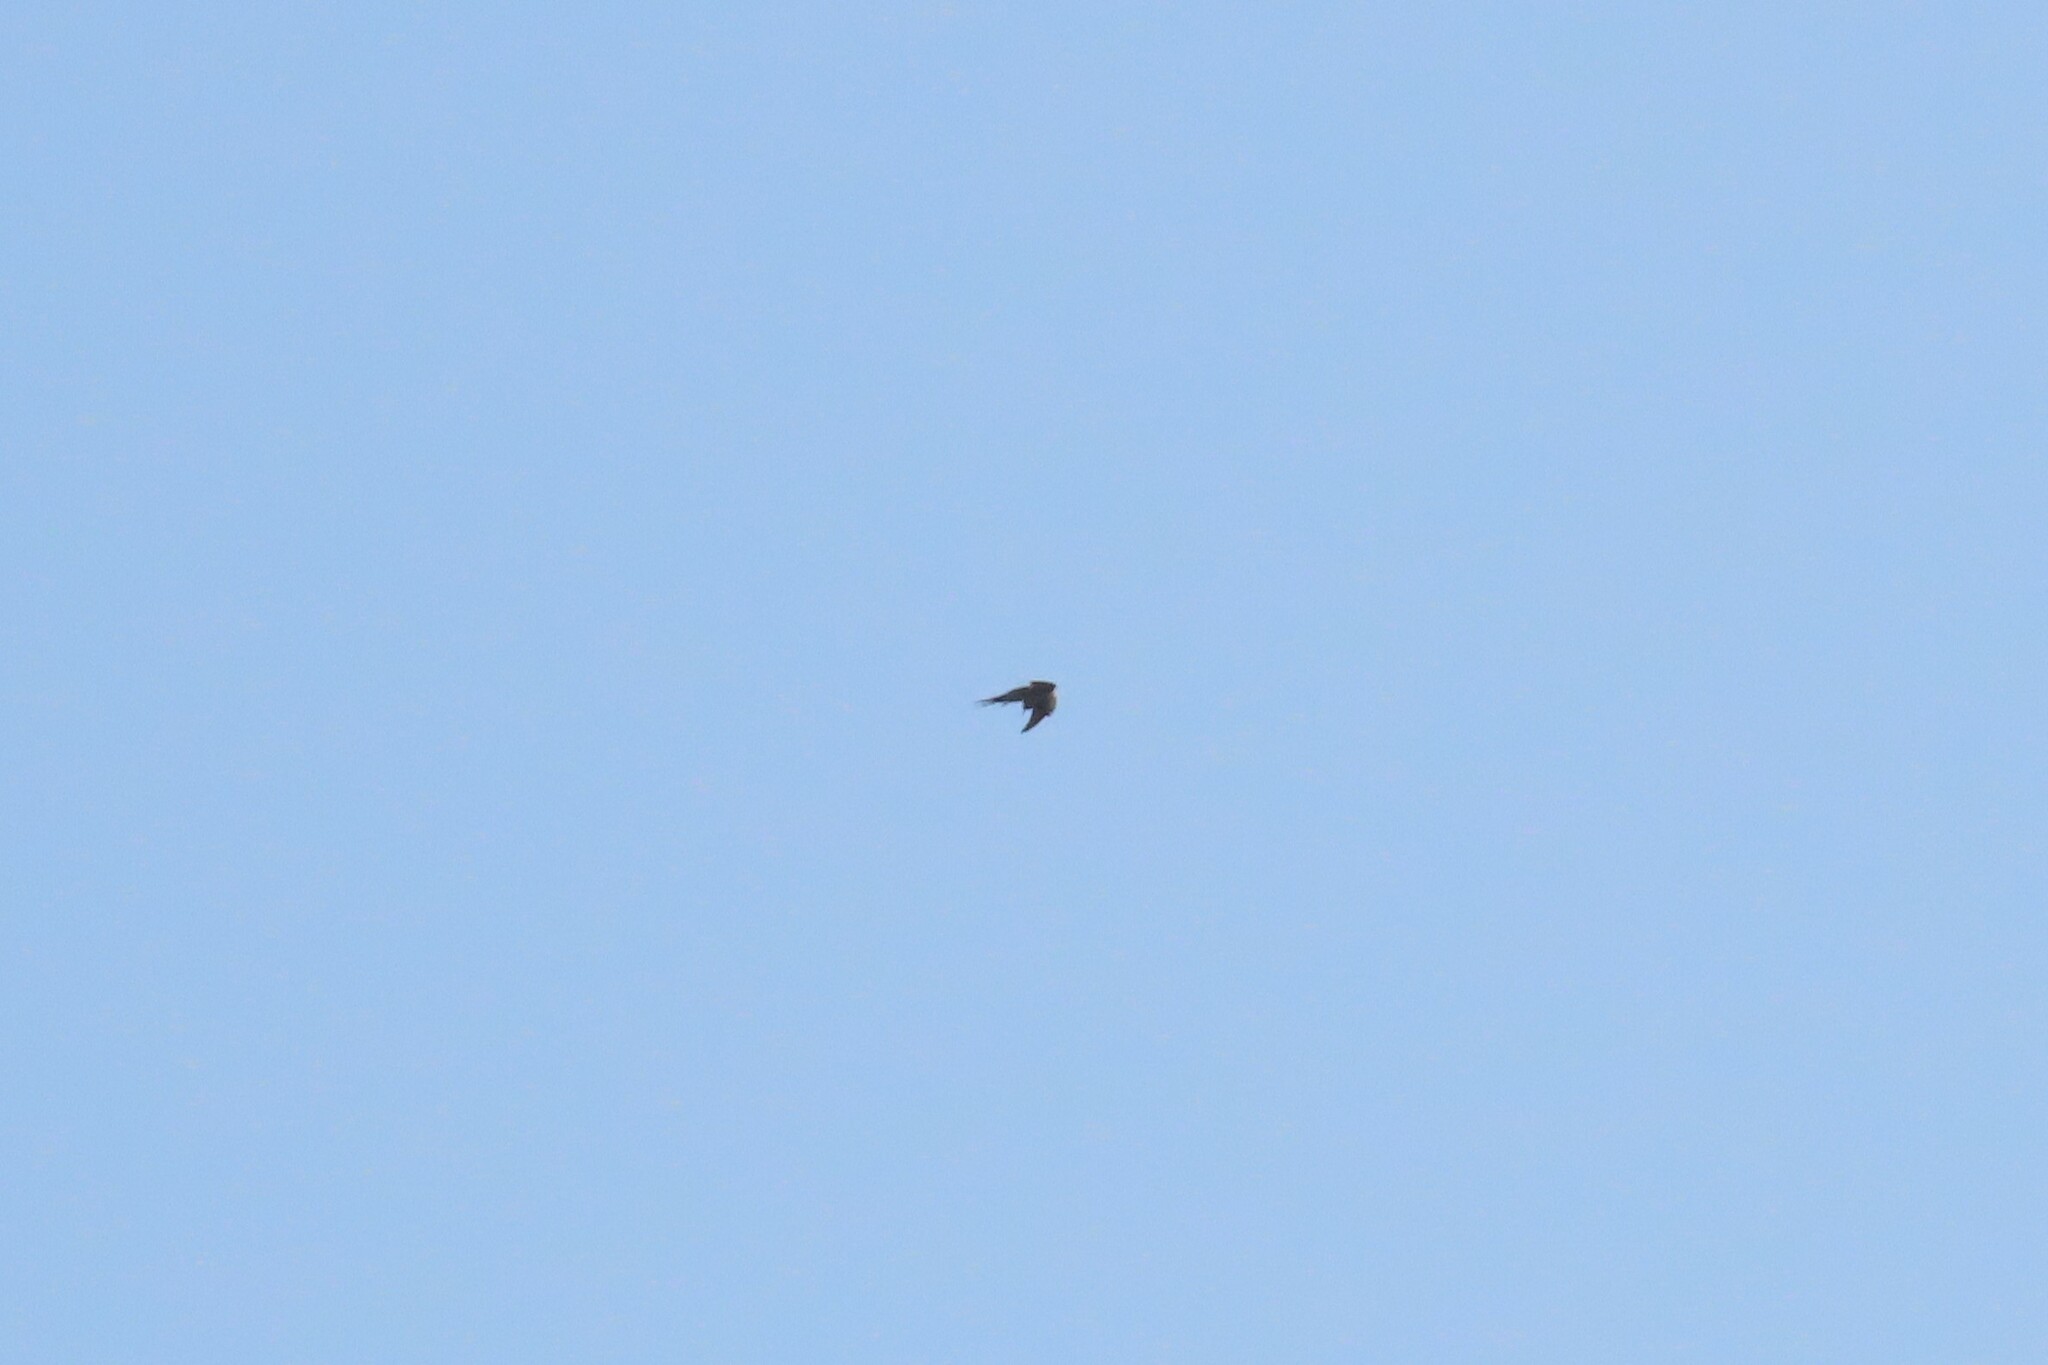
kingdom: Animalia
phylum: Chordata
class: Aves
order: Apodiformes
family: Apodidae
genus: Cypsiurus
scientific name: Cypsiurus balasiensis
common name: Asian palm swift
